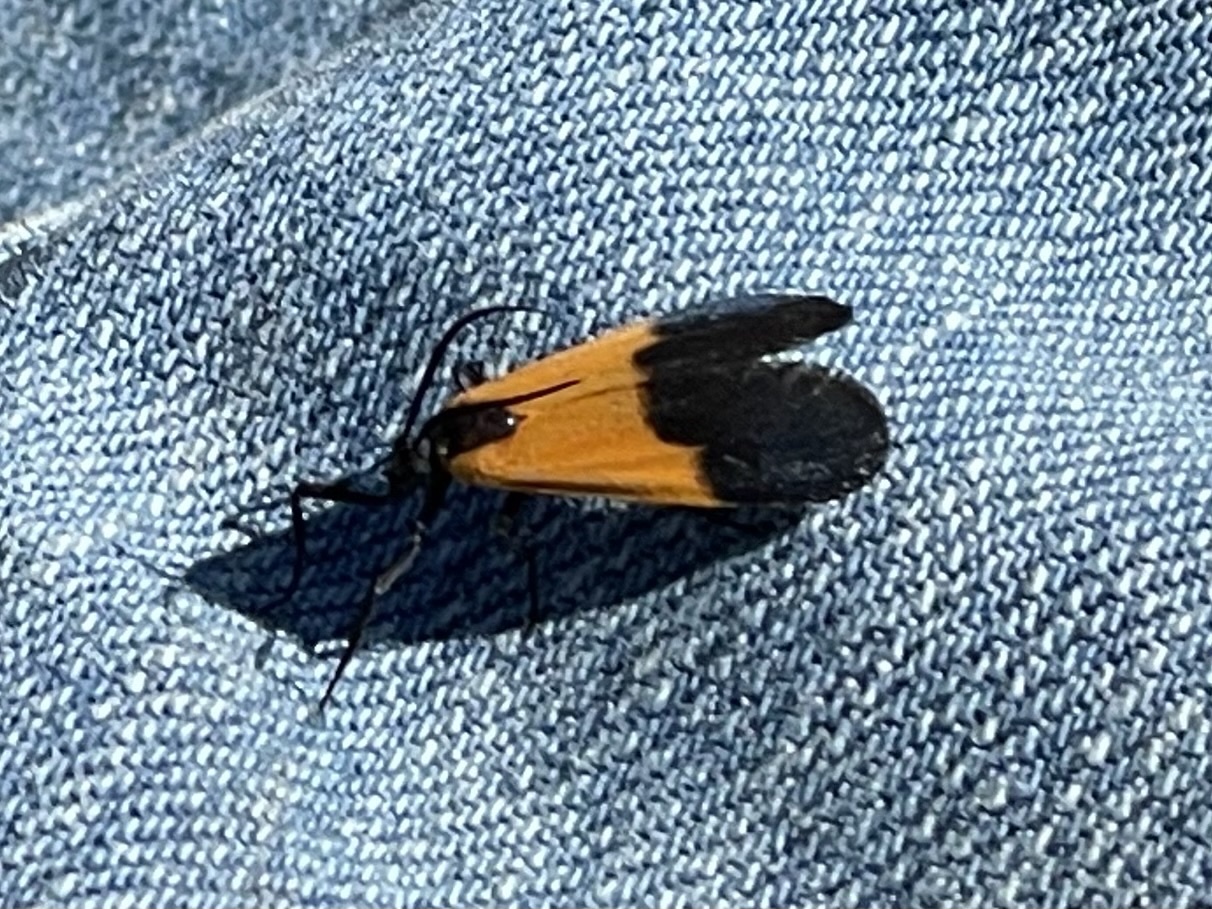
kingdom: Animalia
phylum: Arthropoda
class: Insecta
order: Lepidoptera
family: Erebidae
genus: Lycomorpha
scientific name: Lycomorpha pholus
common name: Black-and-yellow lichen moth
